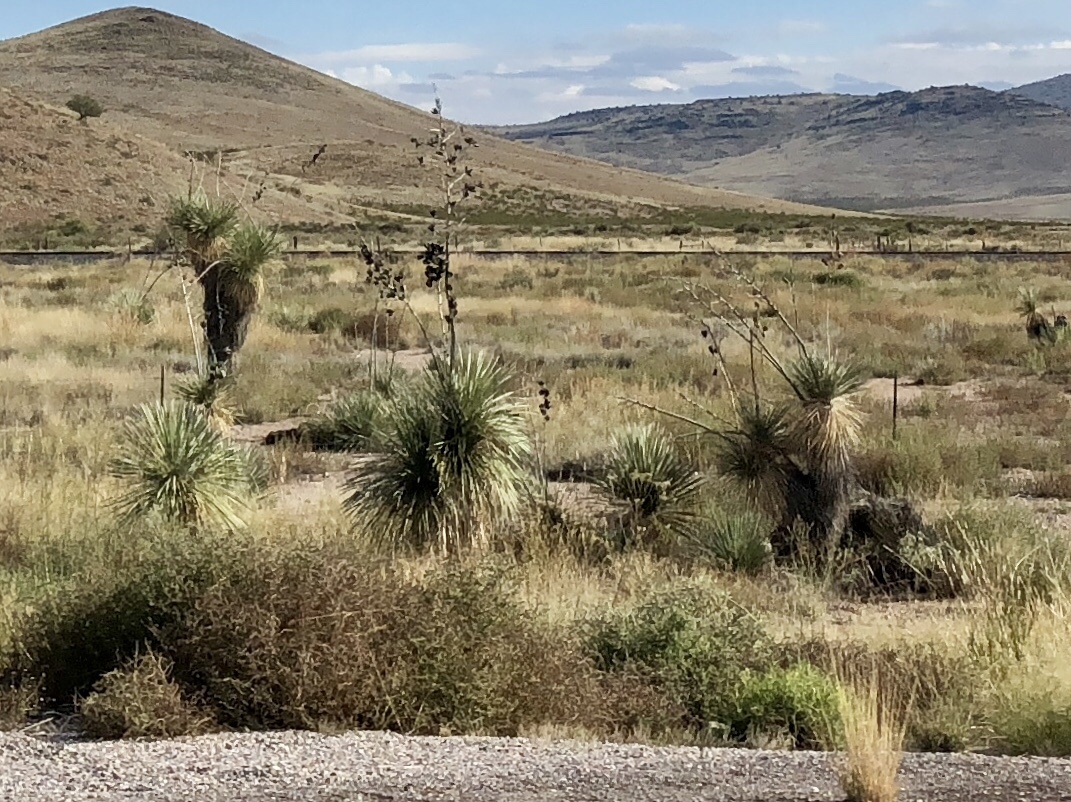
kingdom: Plantae
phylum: Tracheophyta
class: Liliopsida
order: Asparagales
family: Asparagaceae
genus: Yucca
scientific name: Yucca elata
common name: Palmella
